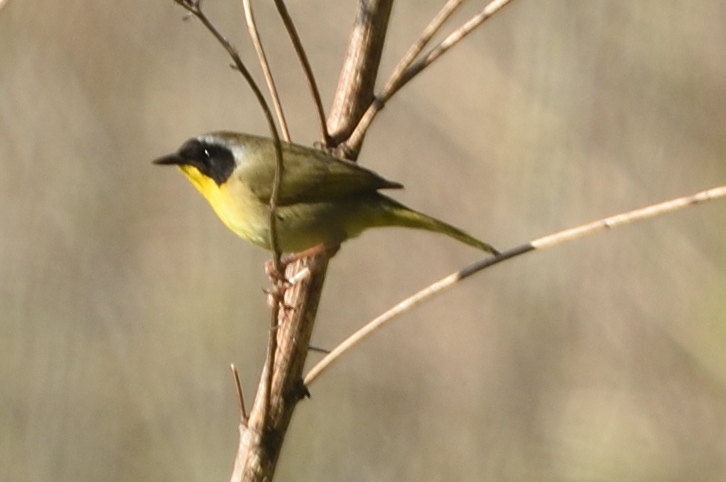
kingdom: Animalia
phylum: Chordata
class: Aves
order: Passeriformes
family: Parulidae
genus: Geothlypis
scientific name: Geothlypis trichas
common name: Common yellowthroat
